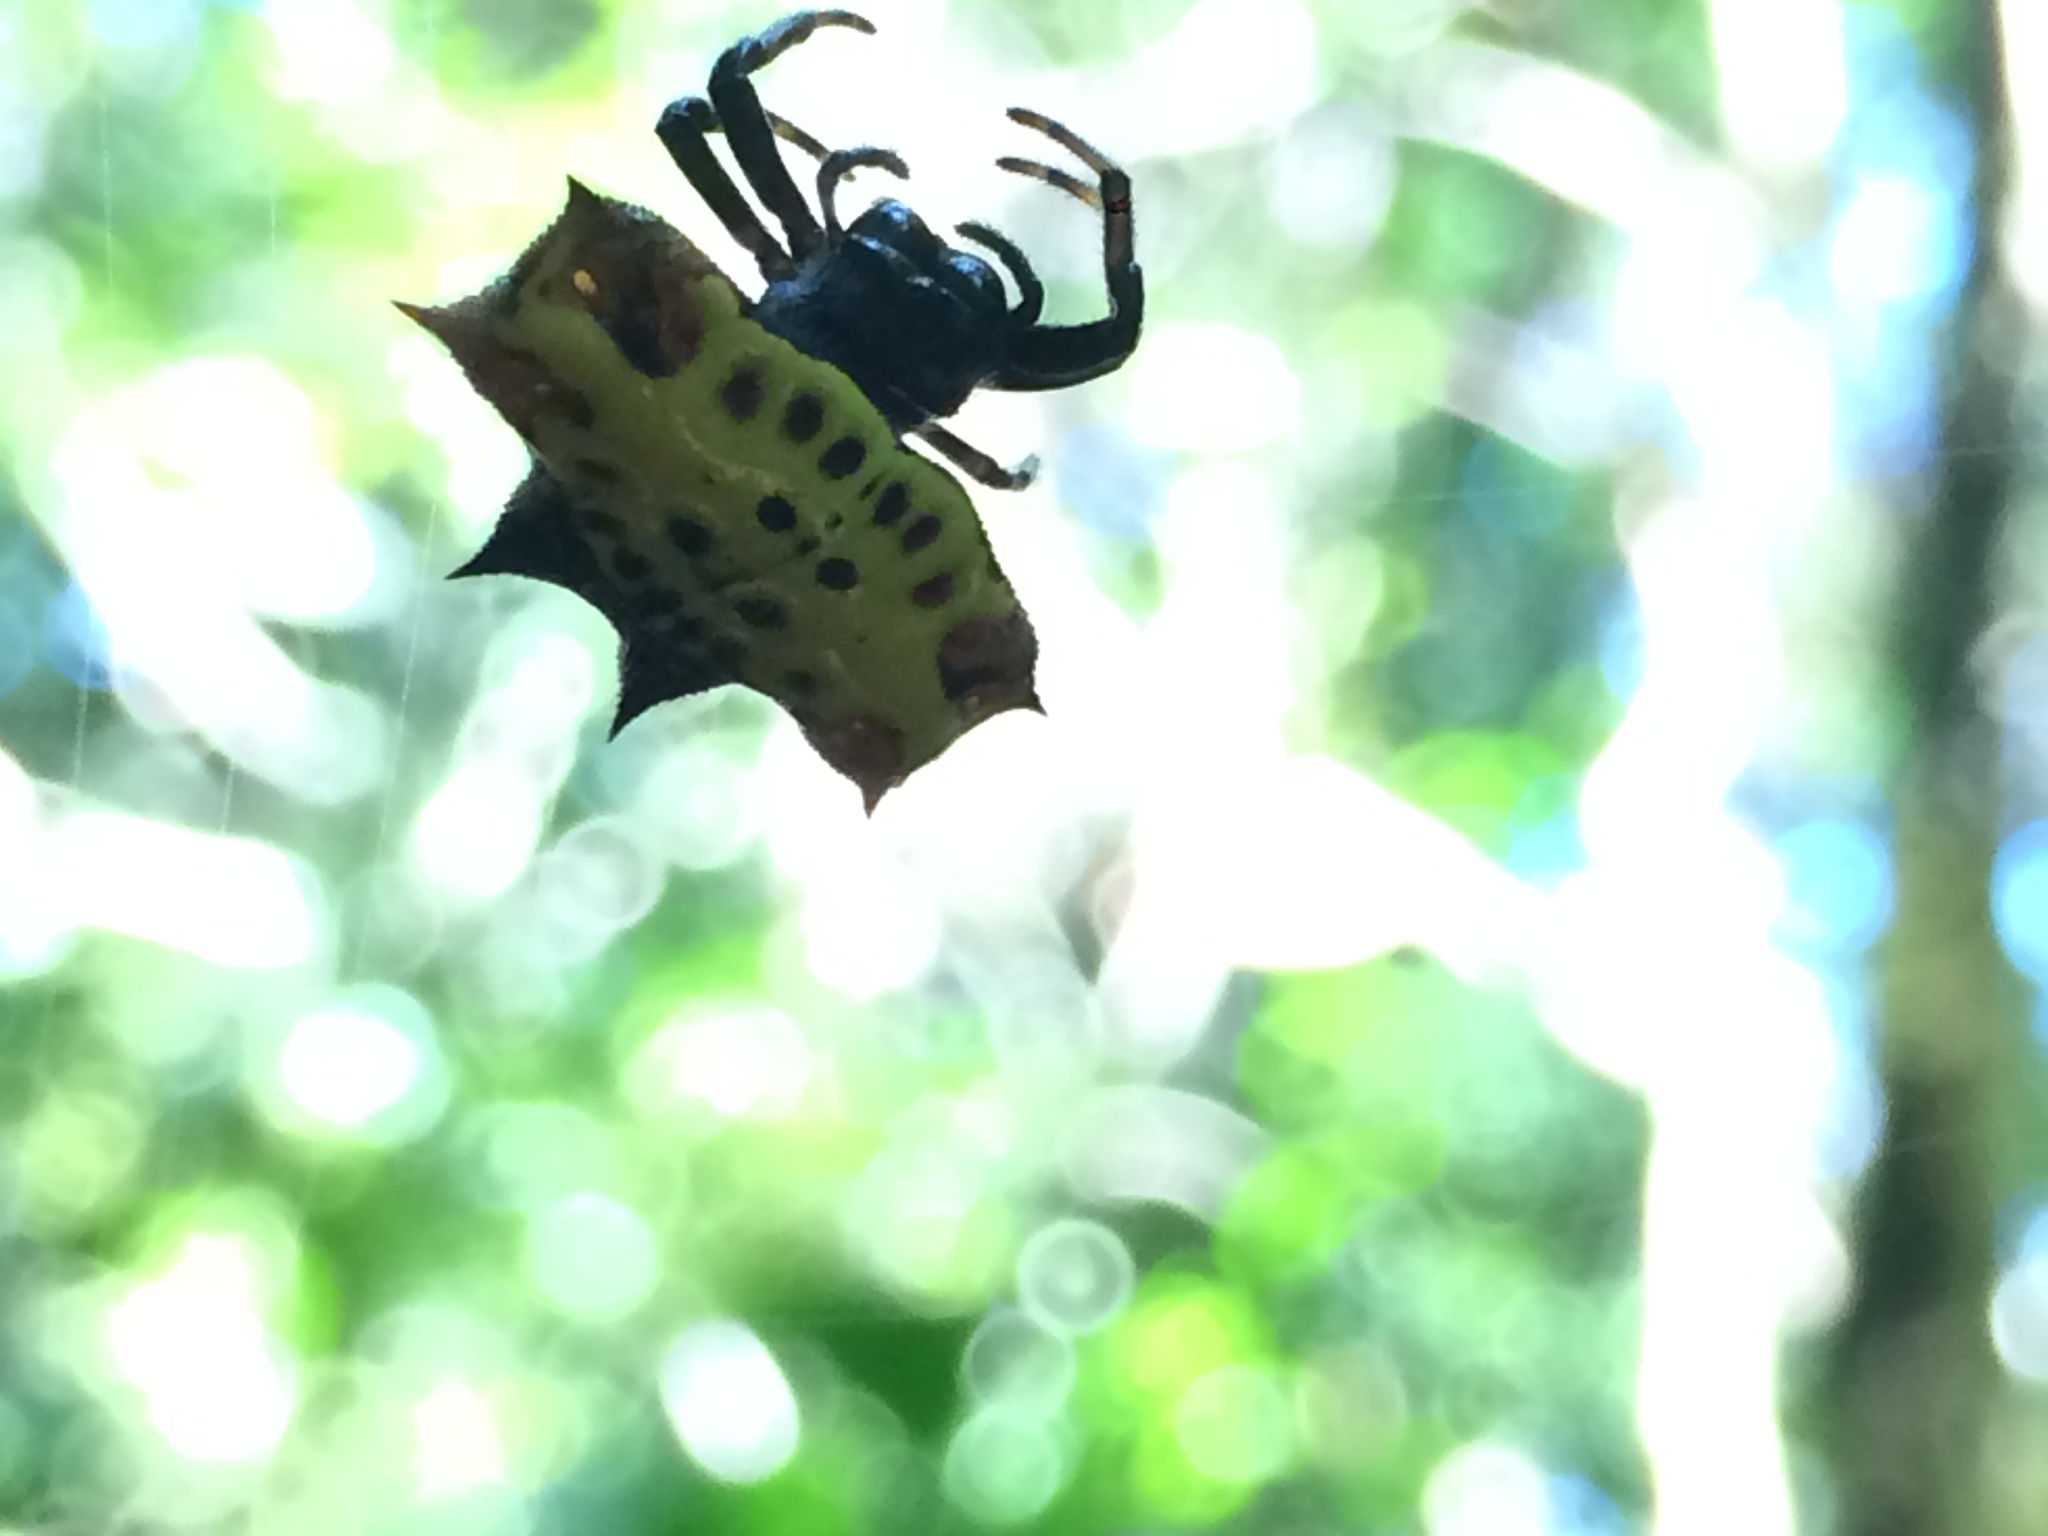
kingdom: Animalia
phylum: Arthropoda
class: Arachnida
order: Araneae
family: Araneidae
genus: Gasteracantha
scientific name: Gasteracantha cancriformis
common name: Orb weavers
